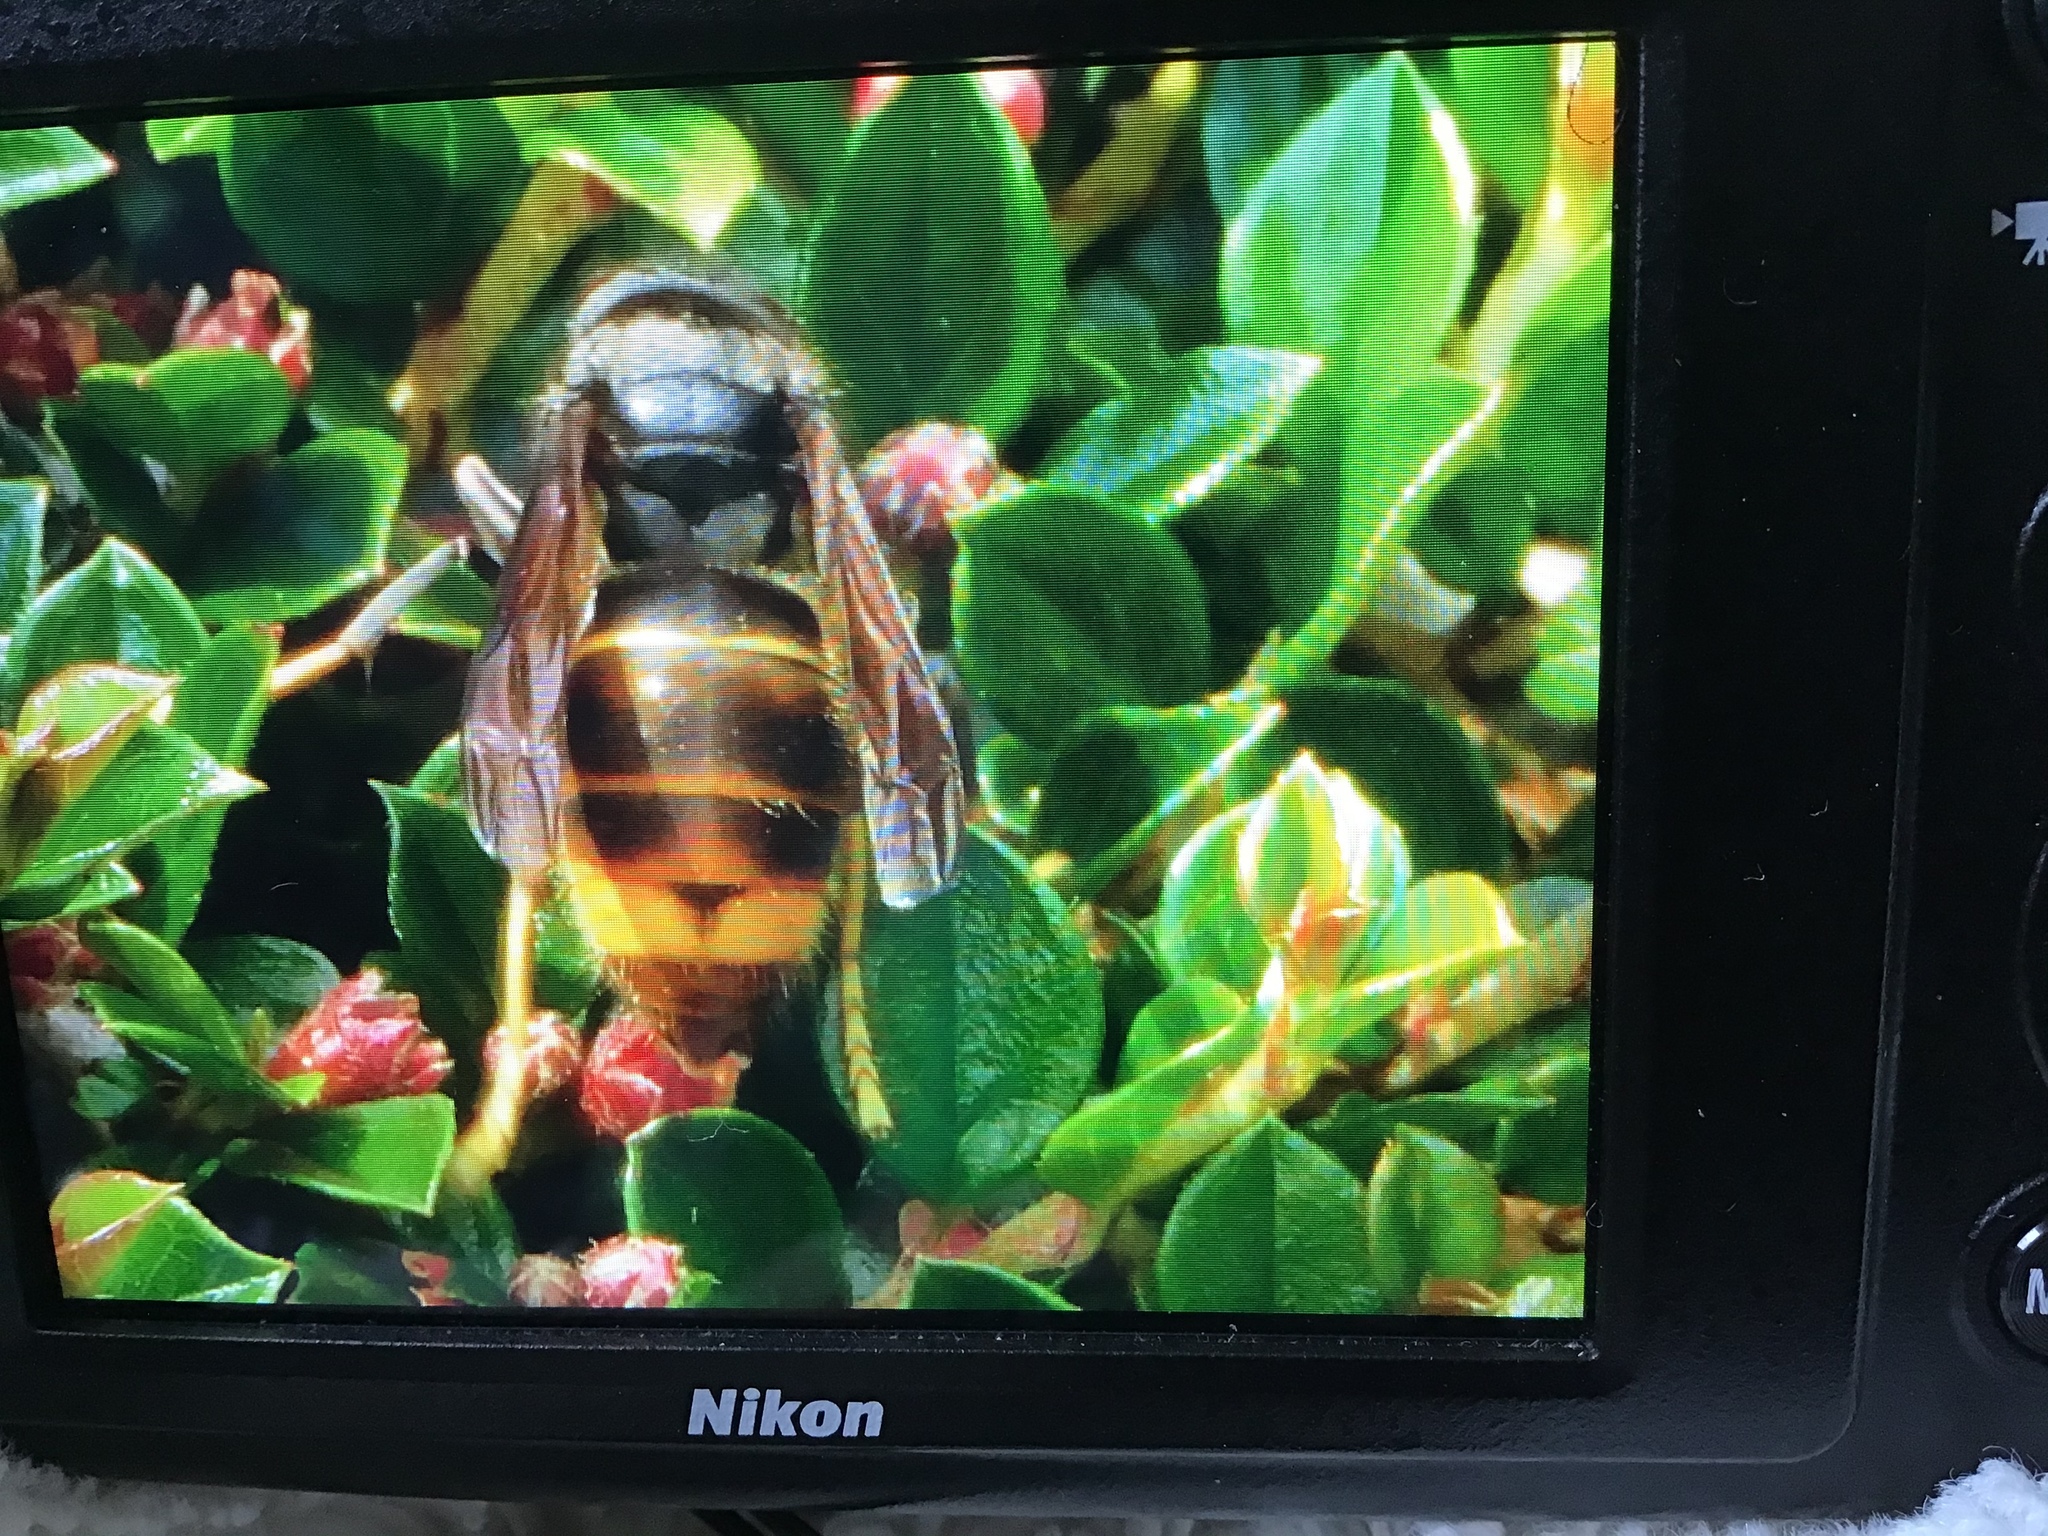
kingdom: Animalia
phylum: Arthropoda
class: Insecta
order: Hymenoptera
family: Vespidae
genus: Vespa
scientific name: Vespa velutina
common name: Asian hornet
